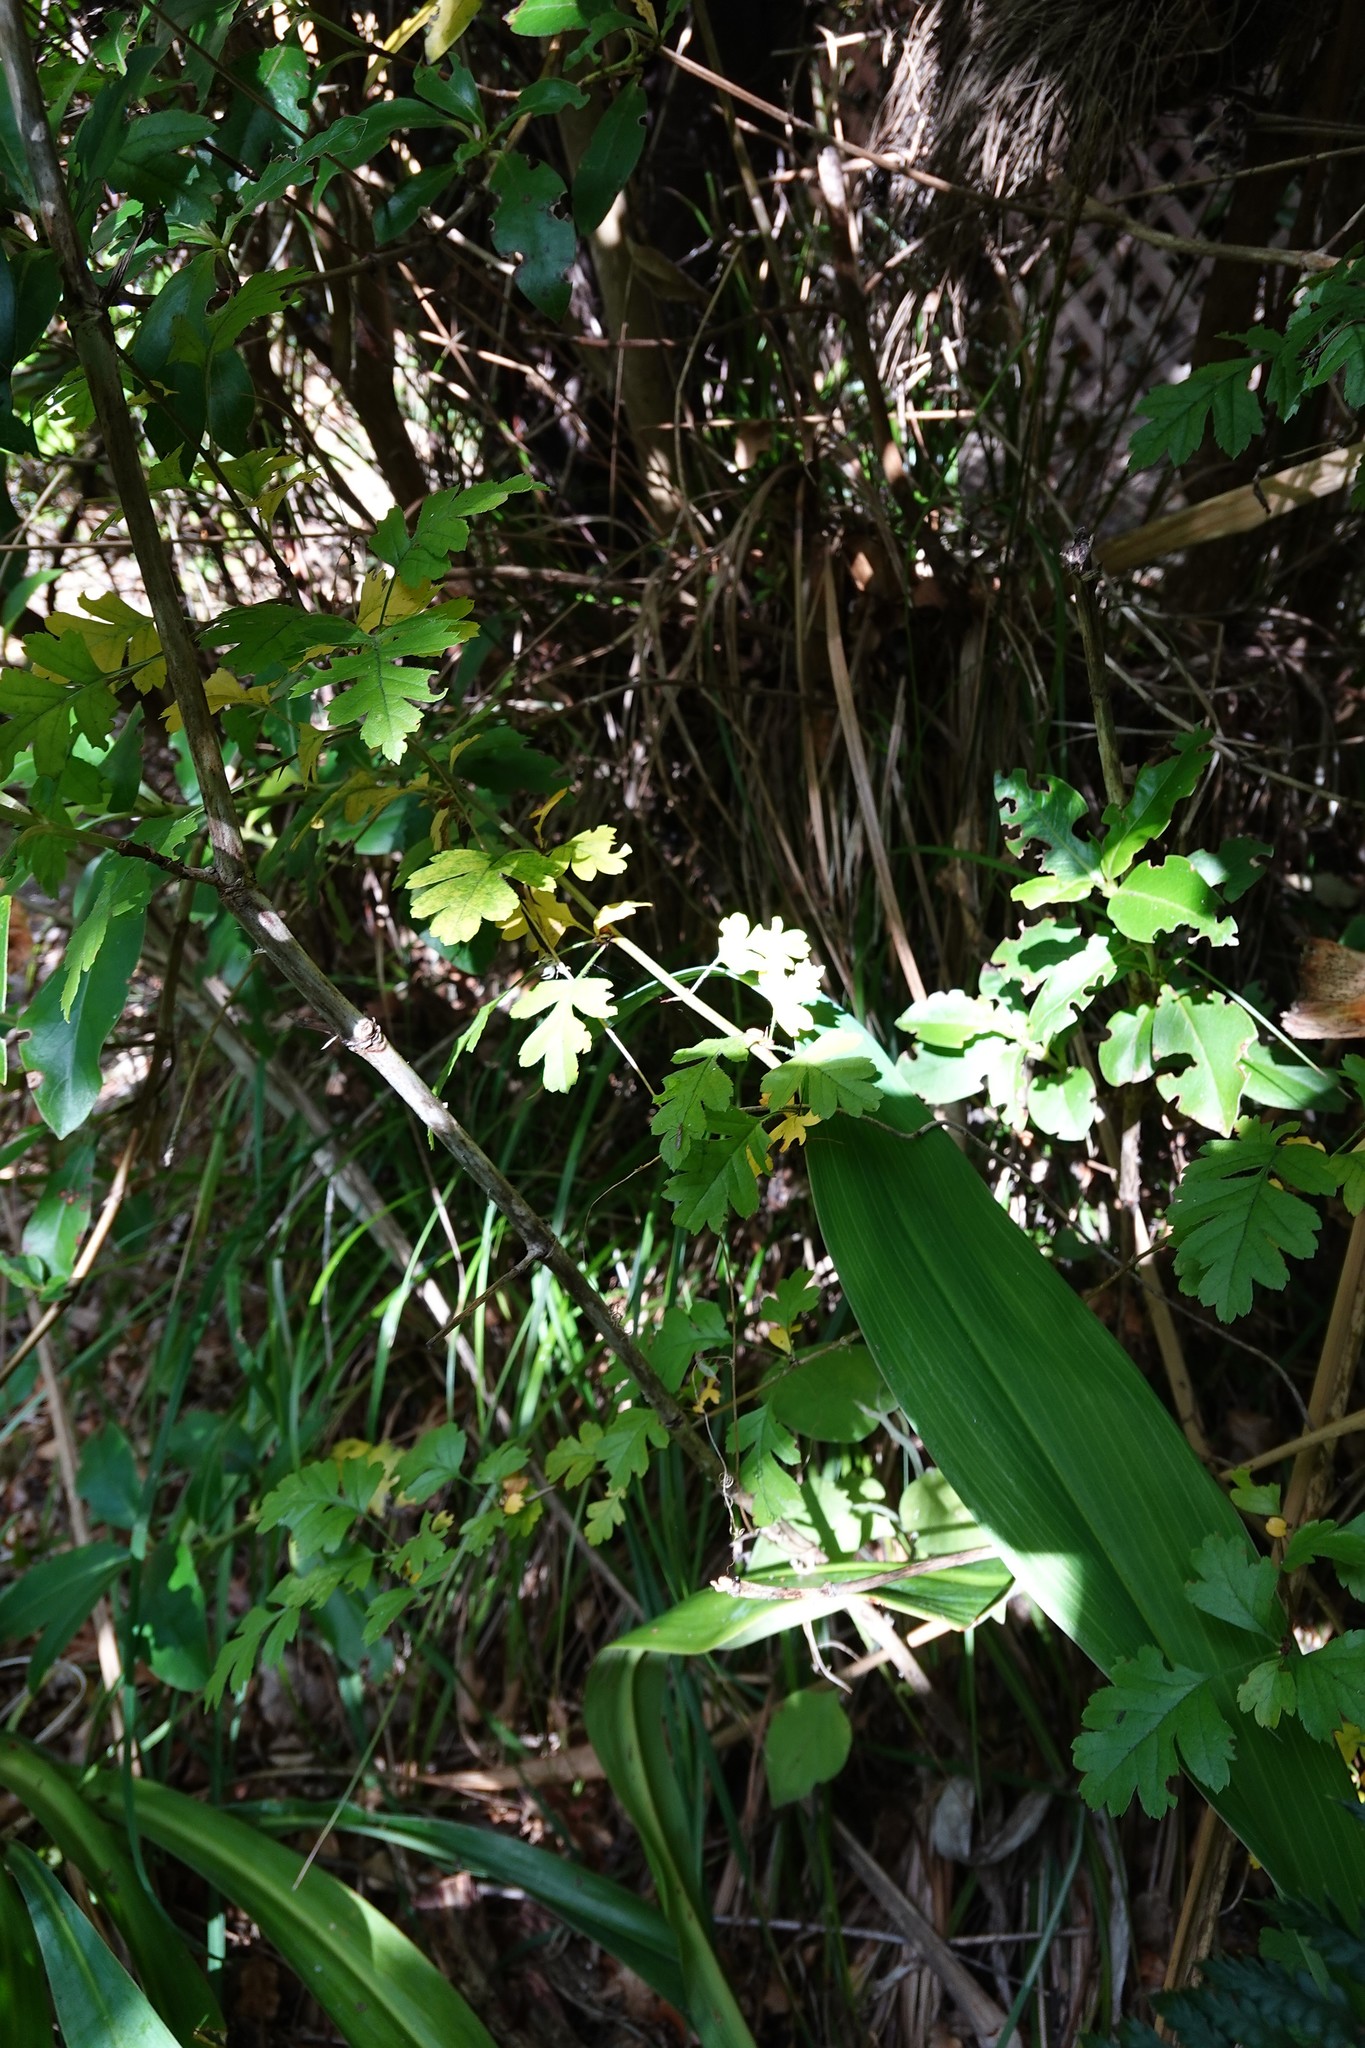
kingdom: Plantae
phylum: Tracheophyta
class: Magnoliopsida
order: Rosales
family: Rosaceae
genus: Crataegus
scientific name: Crataegus monogyna
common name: Hawthorn
